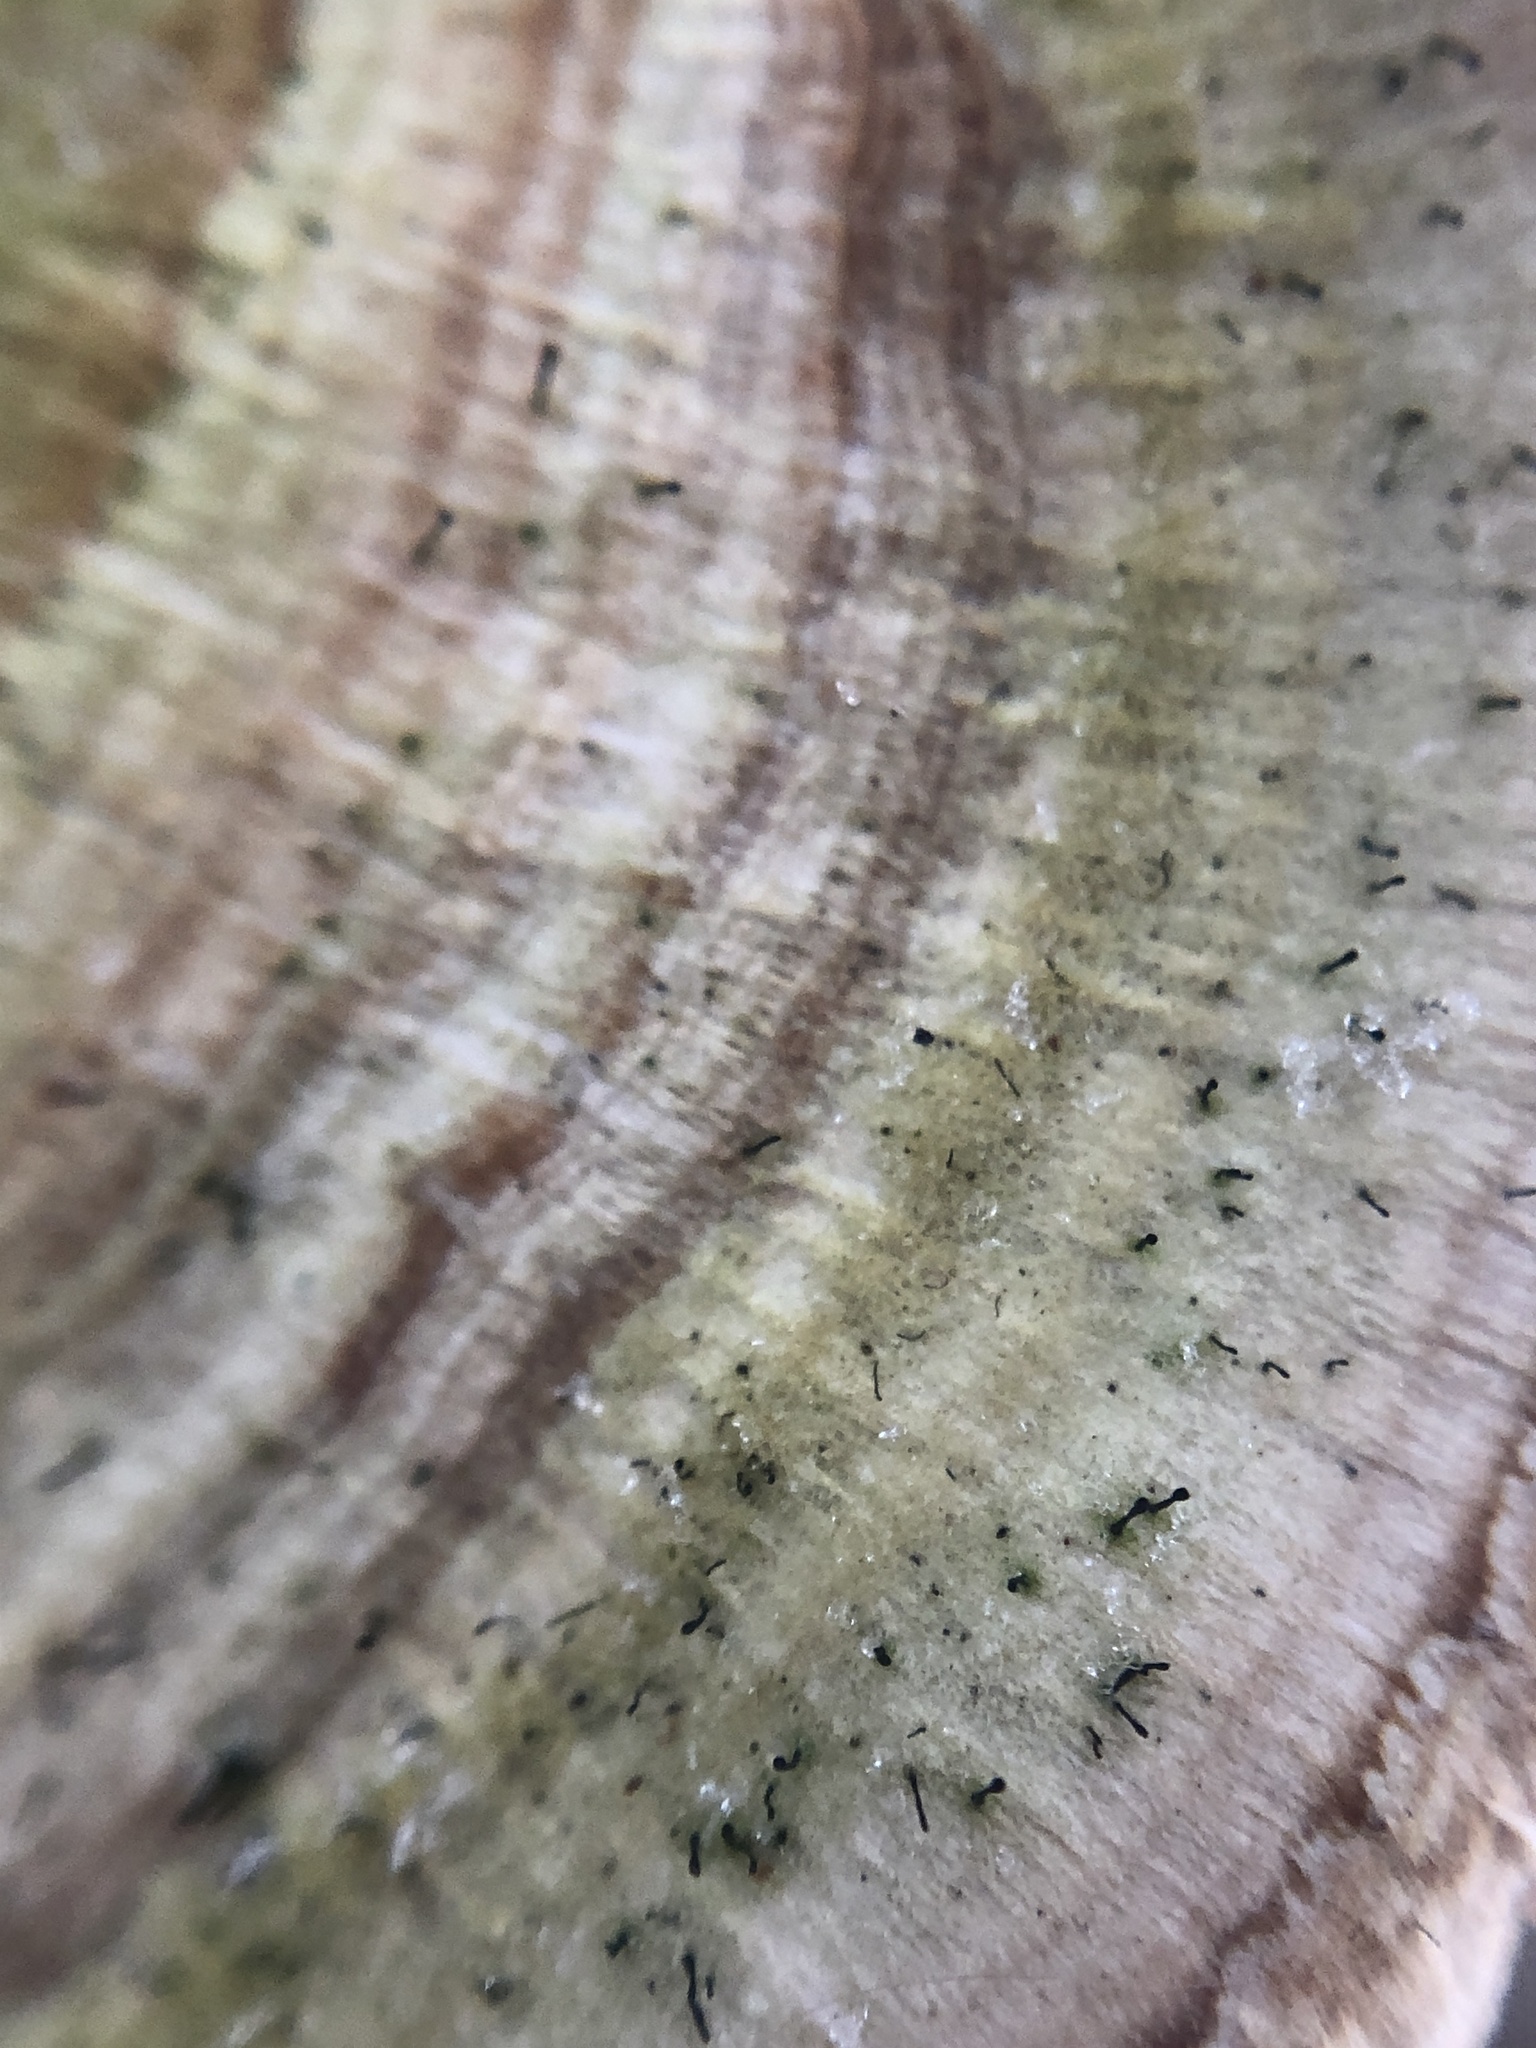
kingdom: Fungi
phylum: Ascomycota
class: Eurotiomycetes
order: Mycocaliciales
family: Mycocaliciaceae
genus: Phaeocalicium
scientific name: Phaeocalicium polyporaeum
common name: Fairy pins
